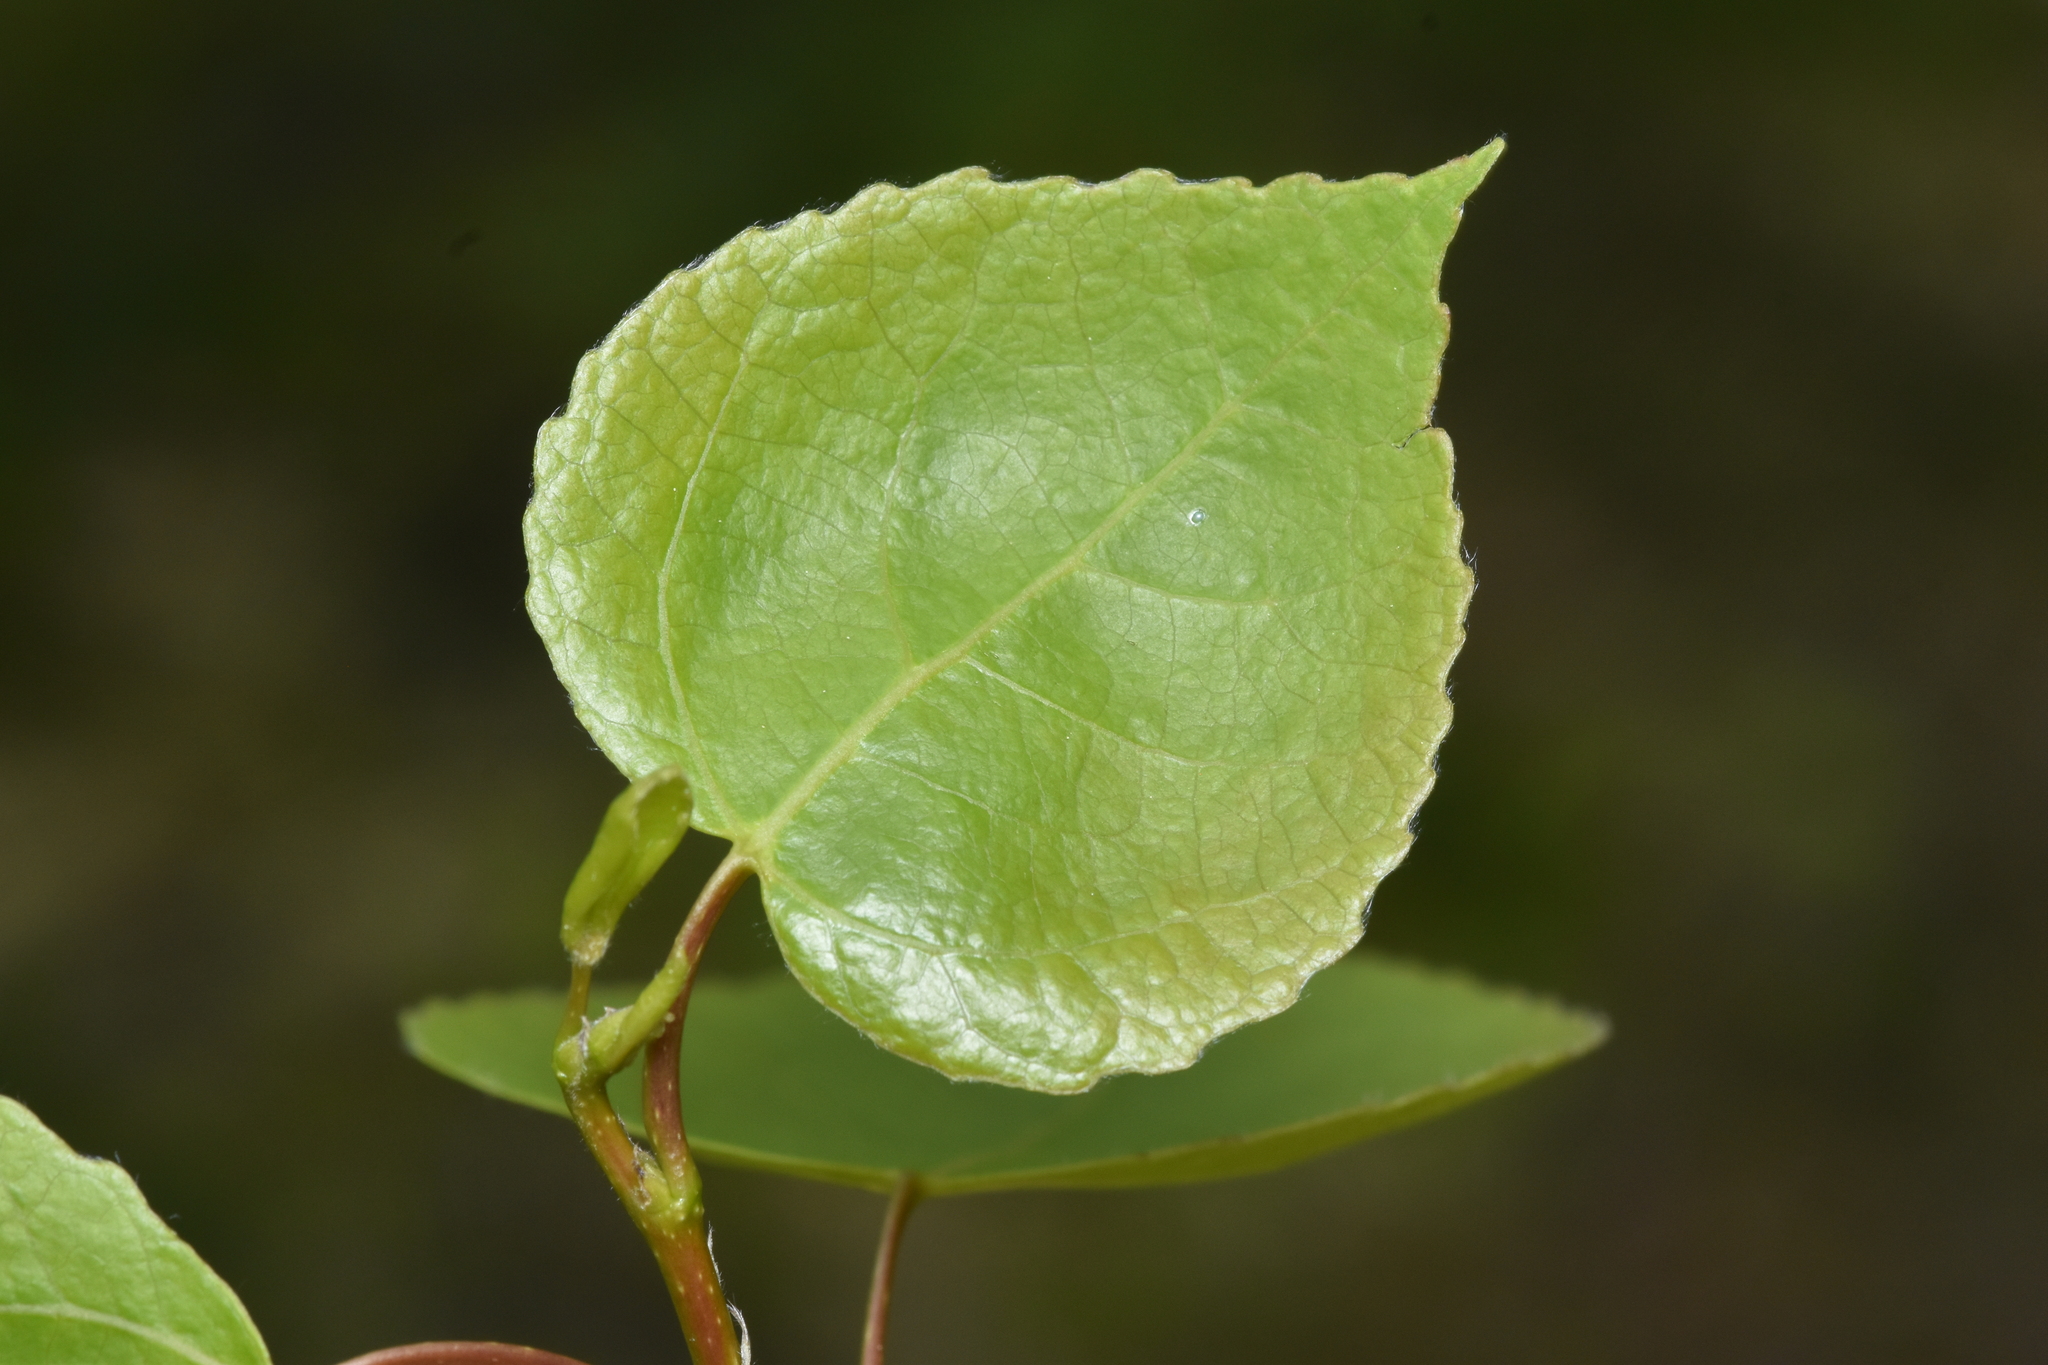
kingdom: Plantae
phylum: Tracheophyta
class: Magnoliopsida
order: Malpighiales
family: Salicaceae
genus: Populus
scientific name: Populus tremuloides
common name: Quaking aspen
